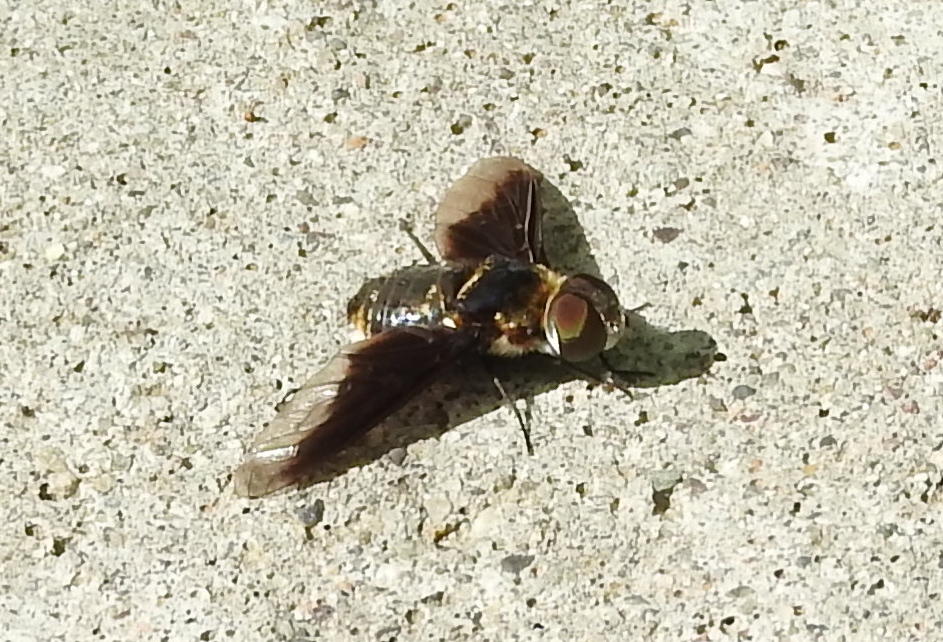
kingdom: Animalia
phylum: Arthropoda
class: Insecta
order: Diptera
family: Bombyliidae
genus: Hemipenthes
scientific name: Hemipenthes
